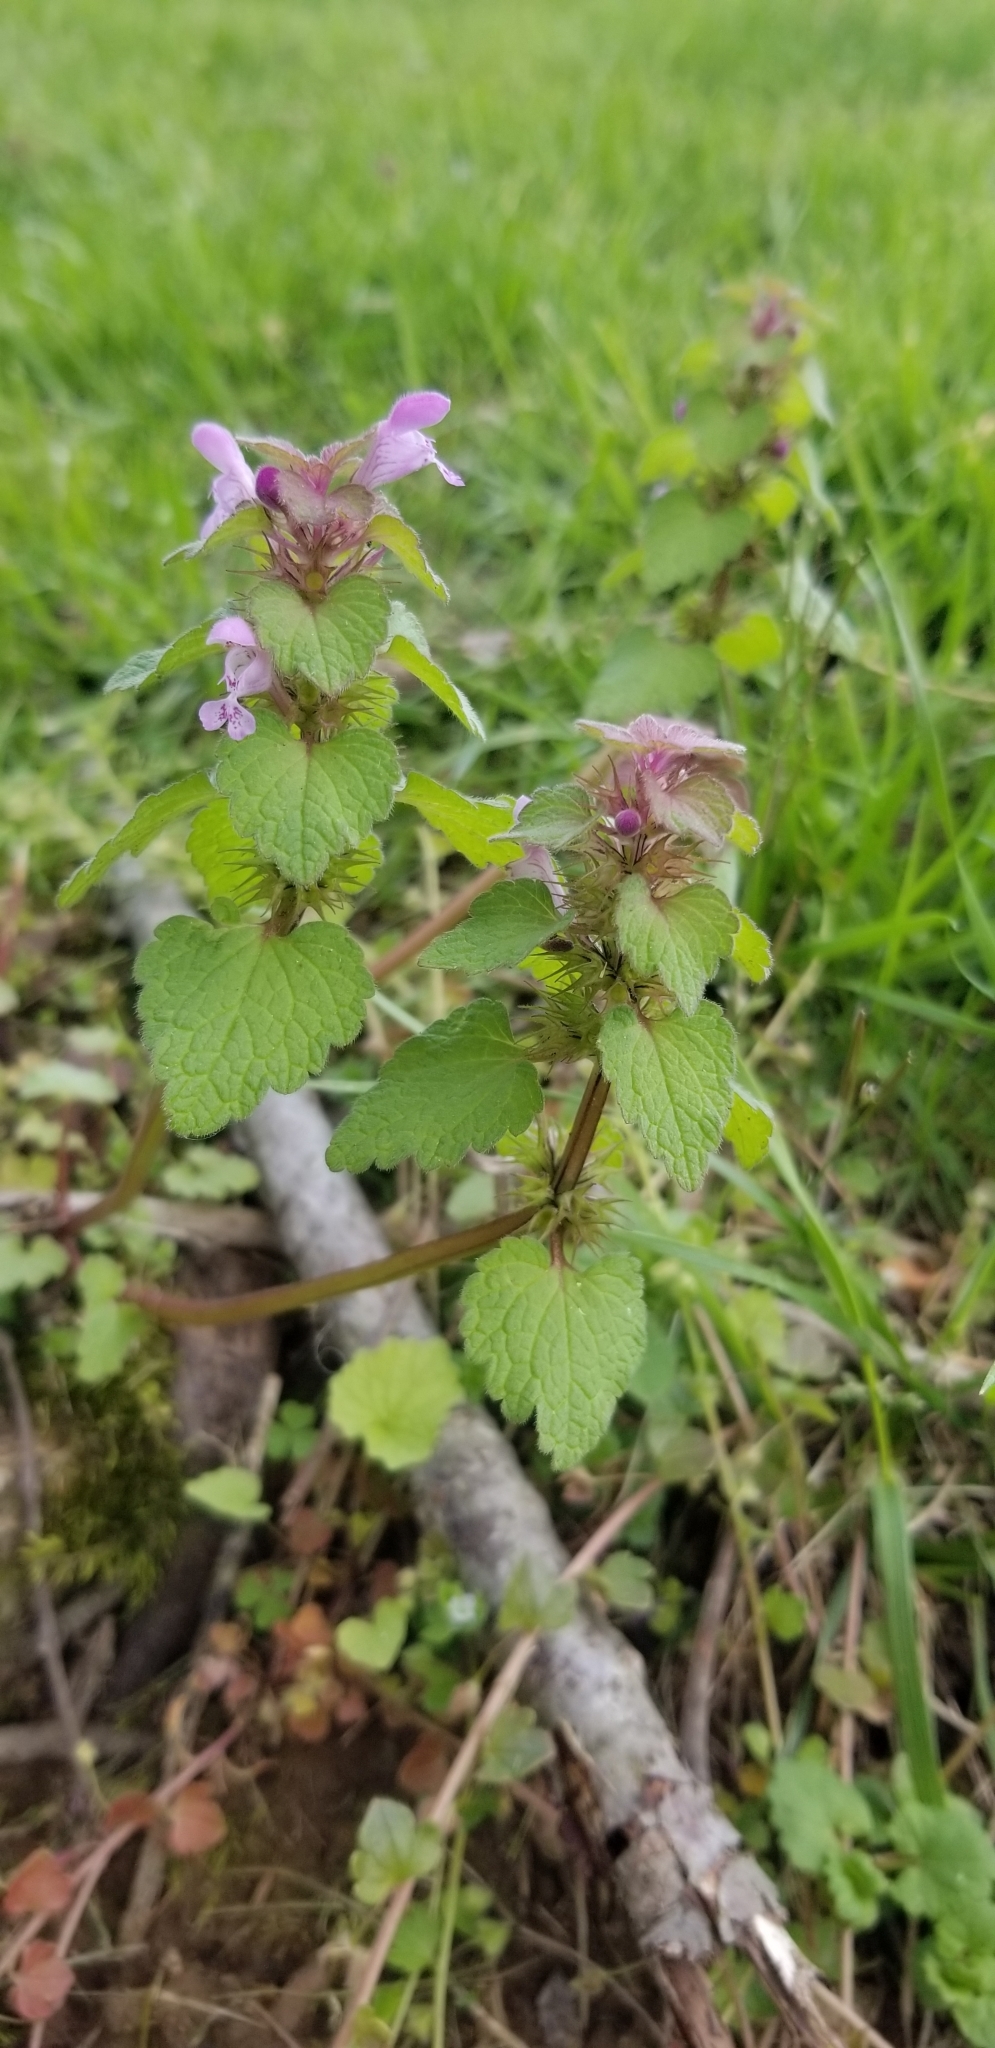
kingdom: Plantae
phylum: Tracheophyta
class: Magnoliopsida
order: Lamiales
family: Lamiaceae
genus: Lamium
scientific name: Lamium purpureum
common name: Red dead-nettle
